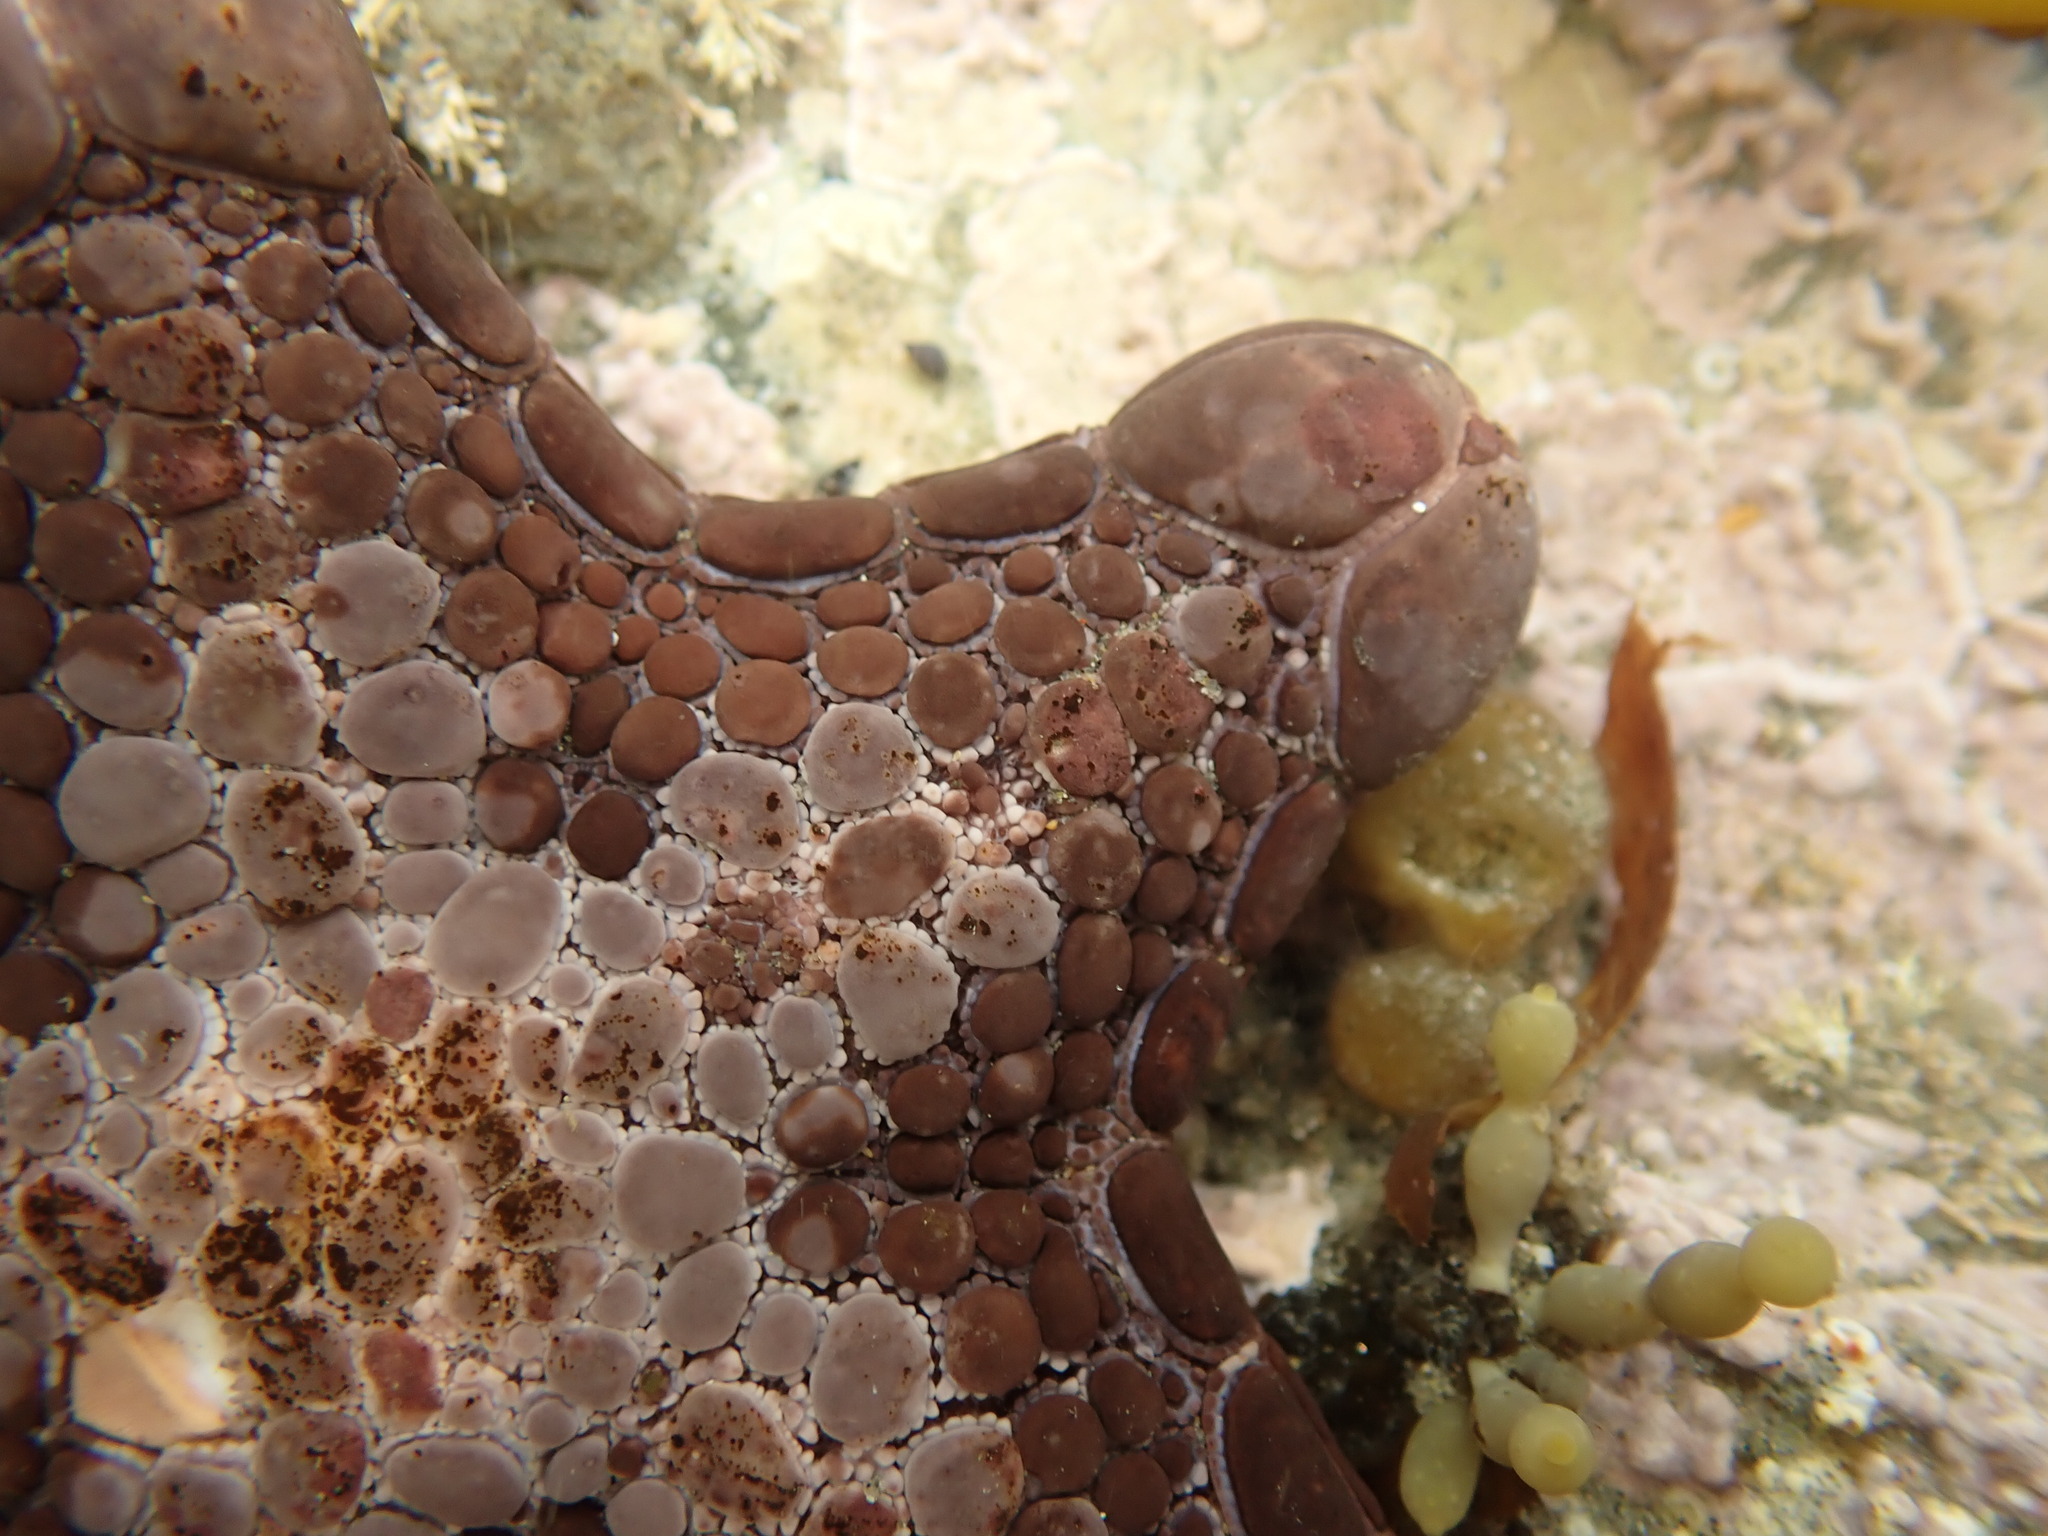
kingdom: Animalia
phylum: Echinodermata
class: Asteroidea
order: Valvatida
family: Goniasteridae
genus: Pentagonaster
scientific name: Pentagonaster pulchellus
